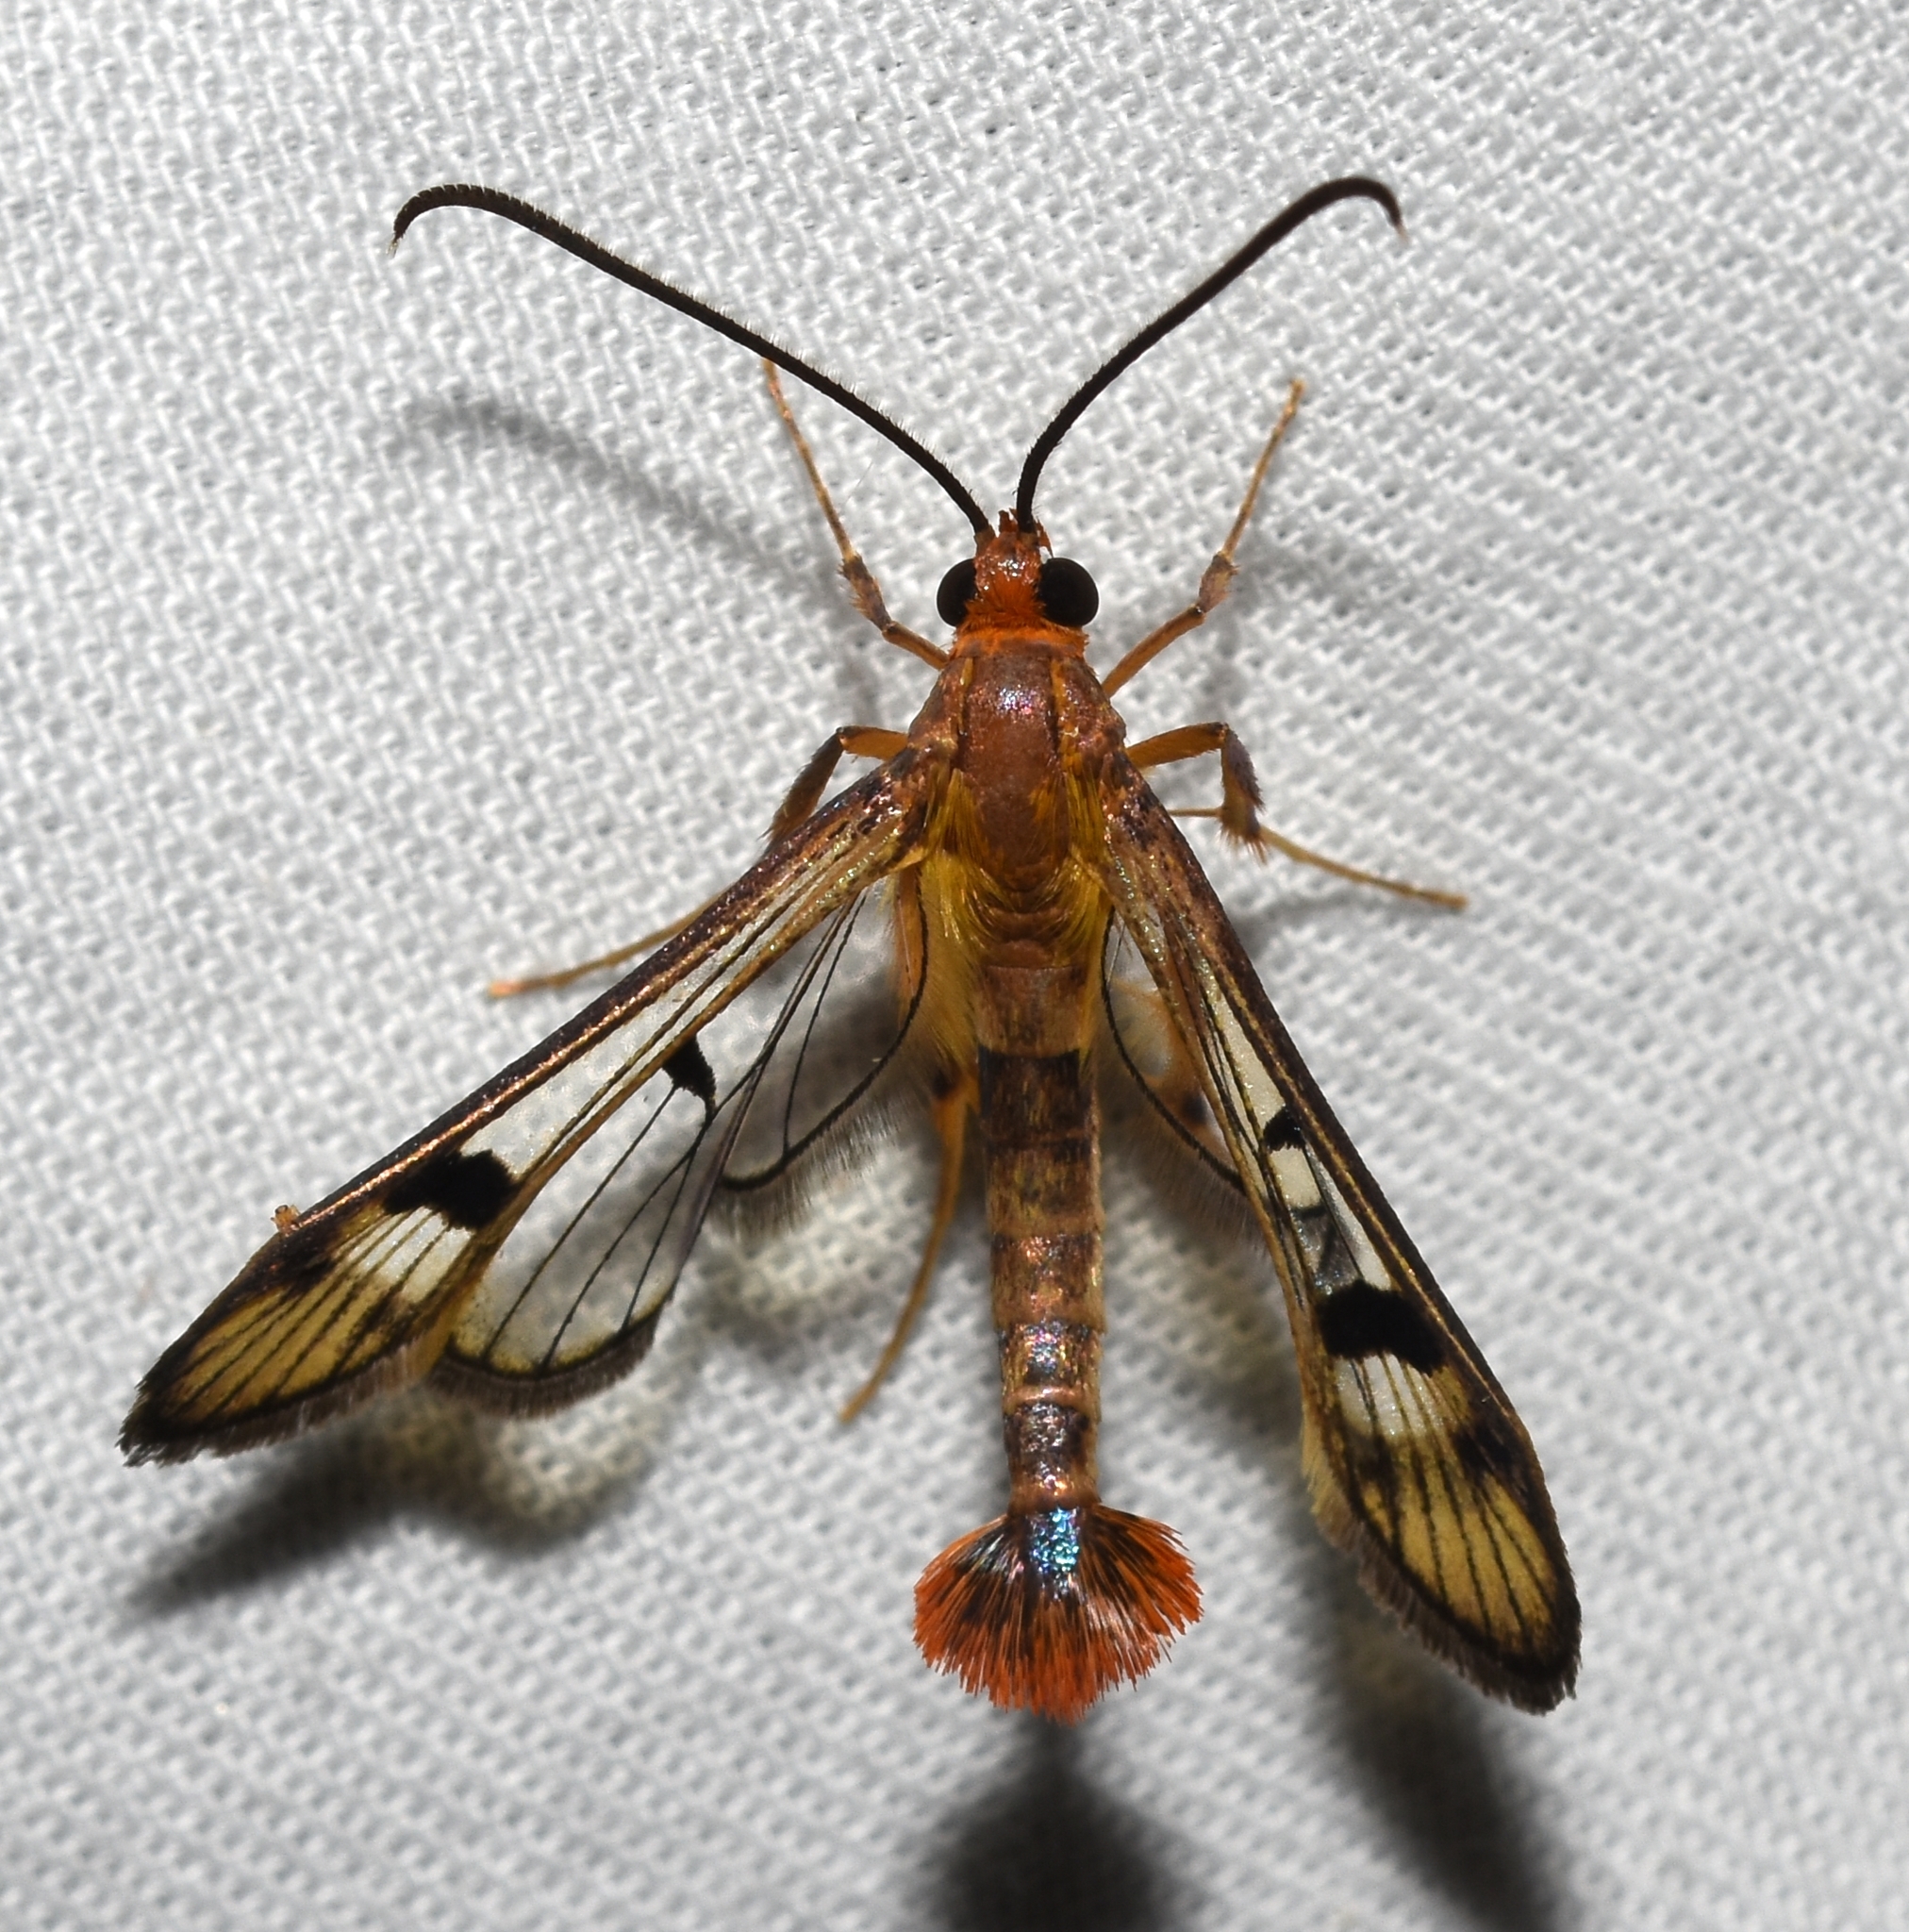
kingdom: Animalia
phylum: Arthropoda
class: Insecta
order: Lepidoptera
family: Sesiidae
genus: Synanthedon
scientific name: Synanthedon acerni
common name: Maple callus borer moth
